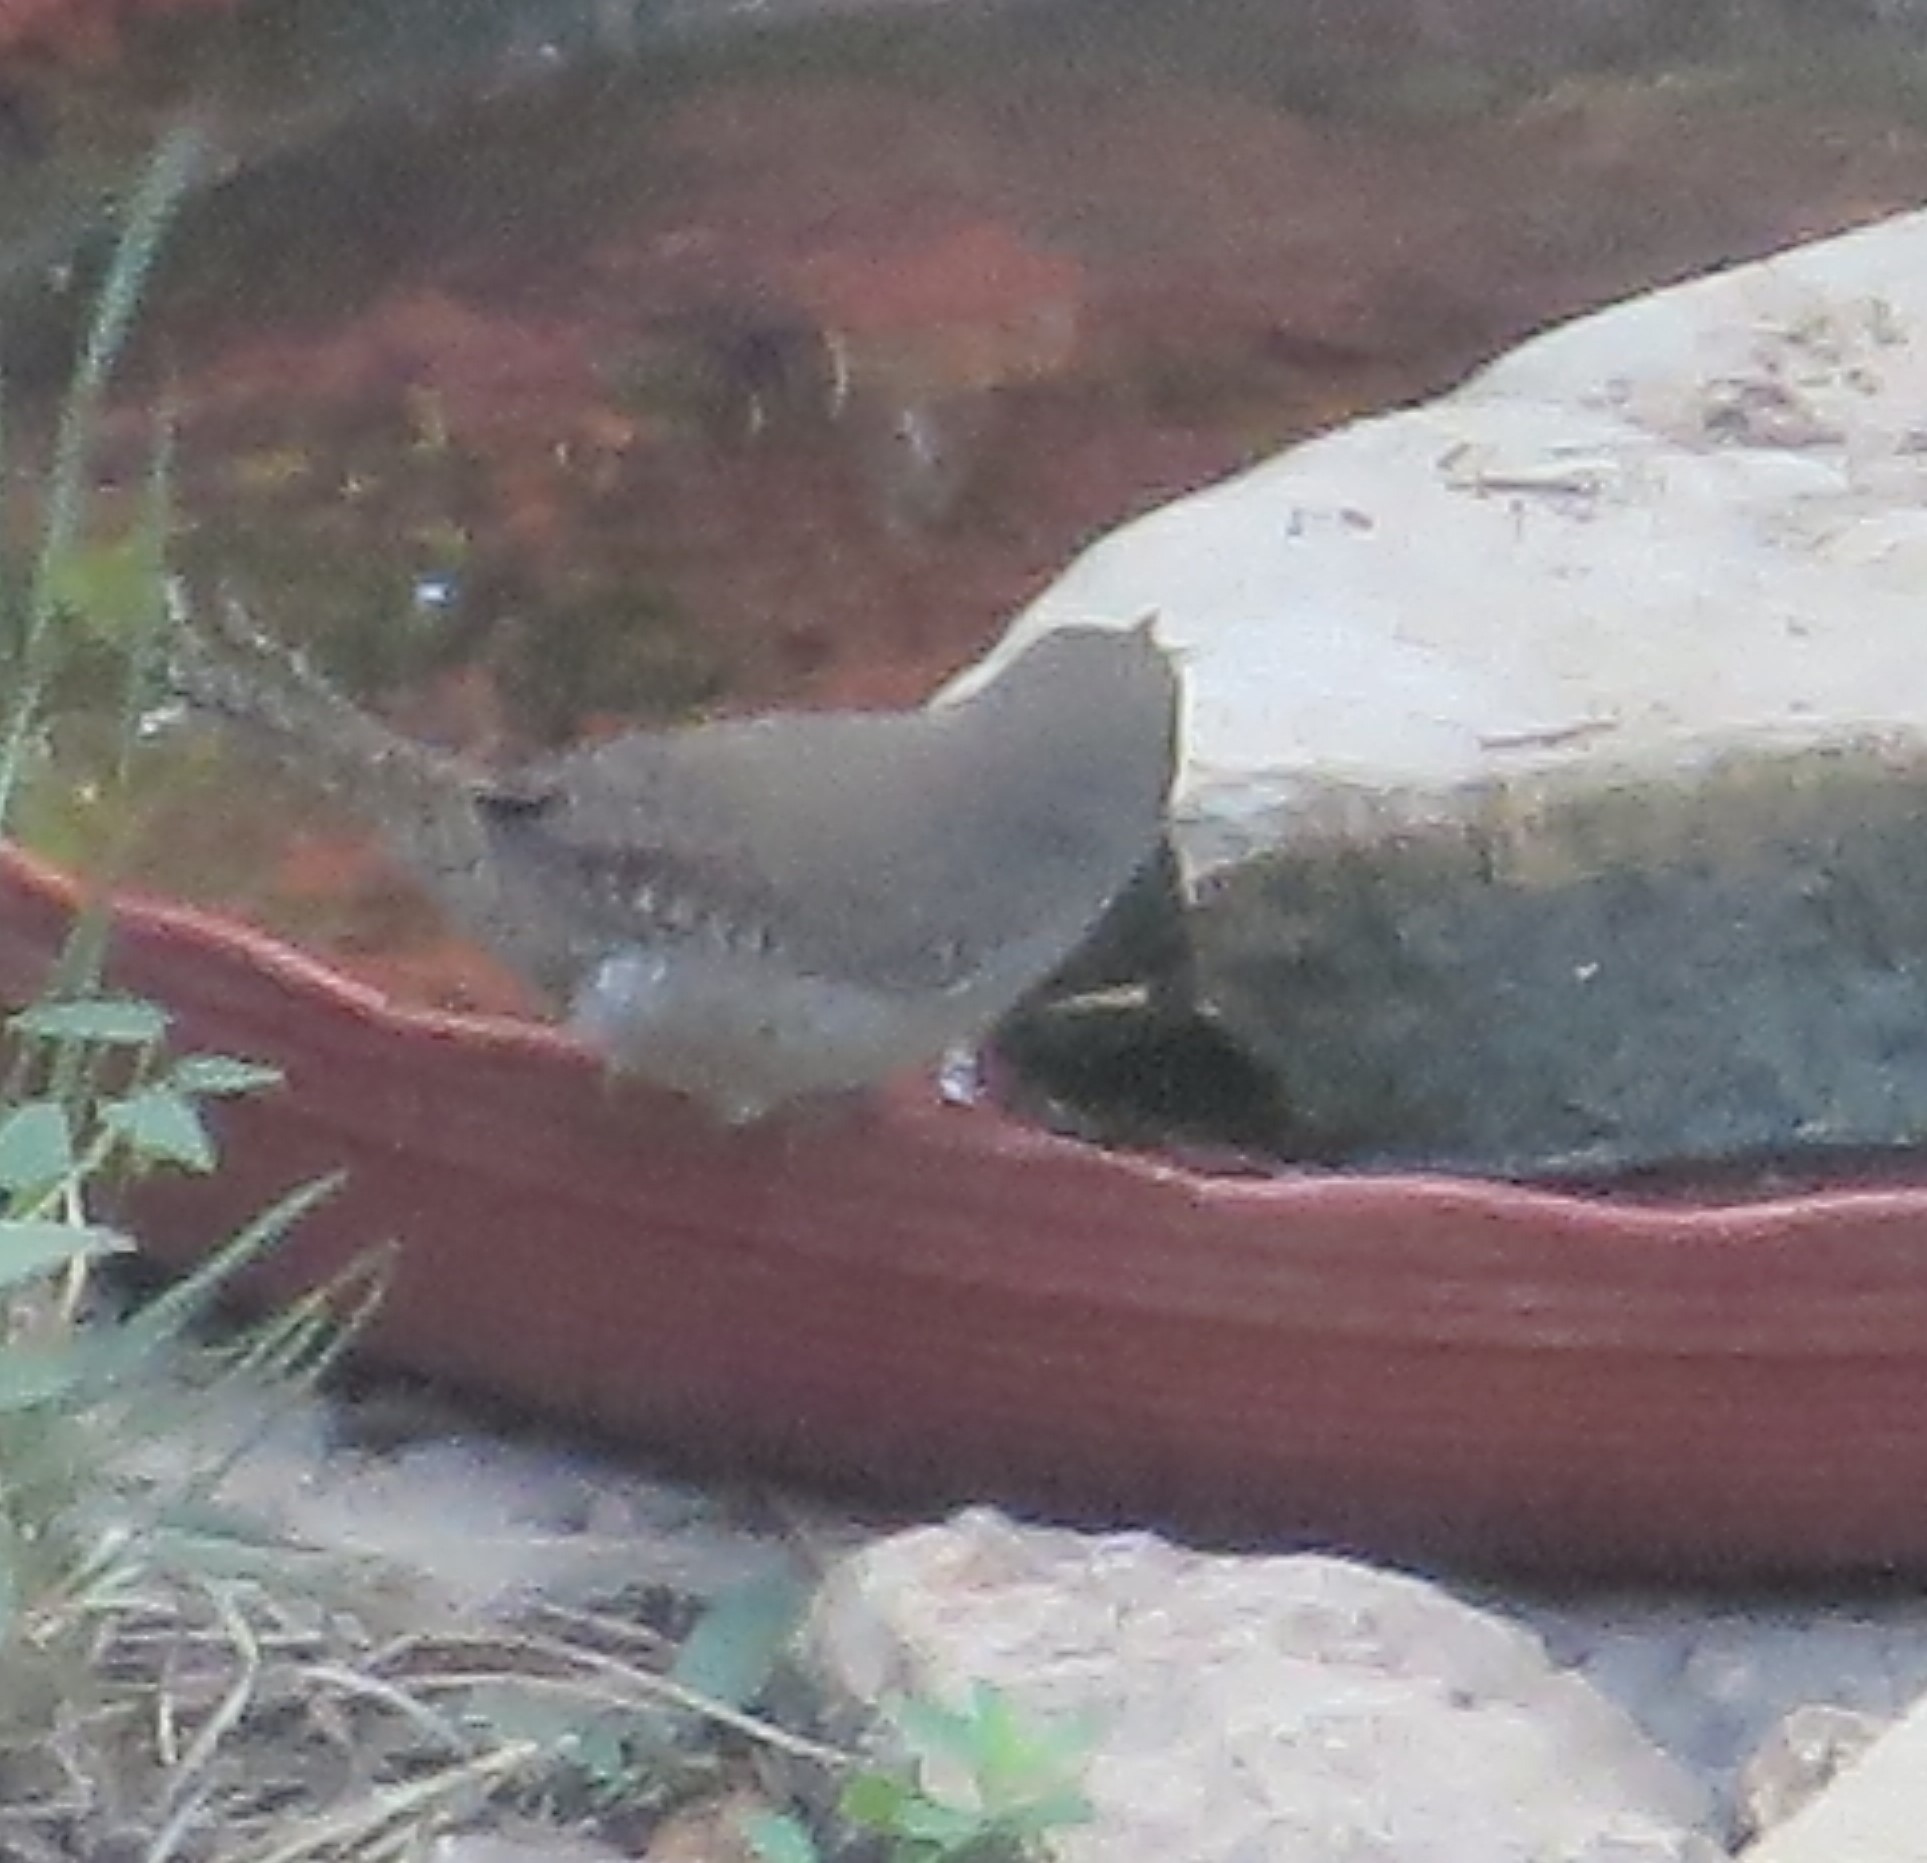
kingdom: Animalia
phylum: Chordata
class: Aves
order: Passeriformes
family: Troglodytidae
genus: Troglodytes
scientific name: Troglodytes aedon
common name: House wren
